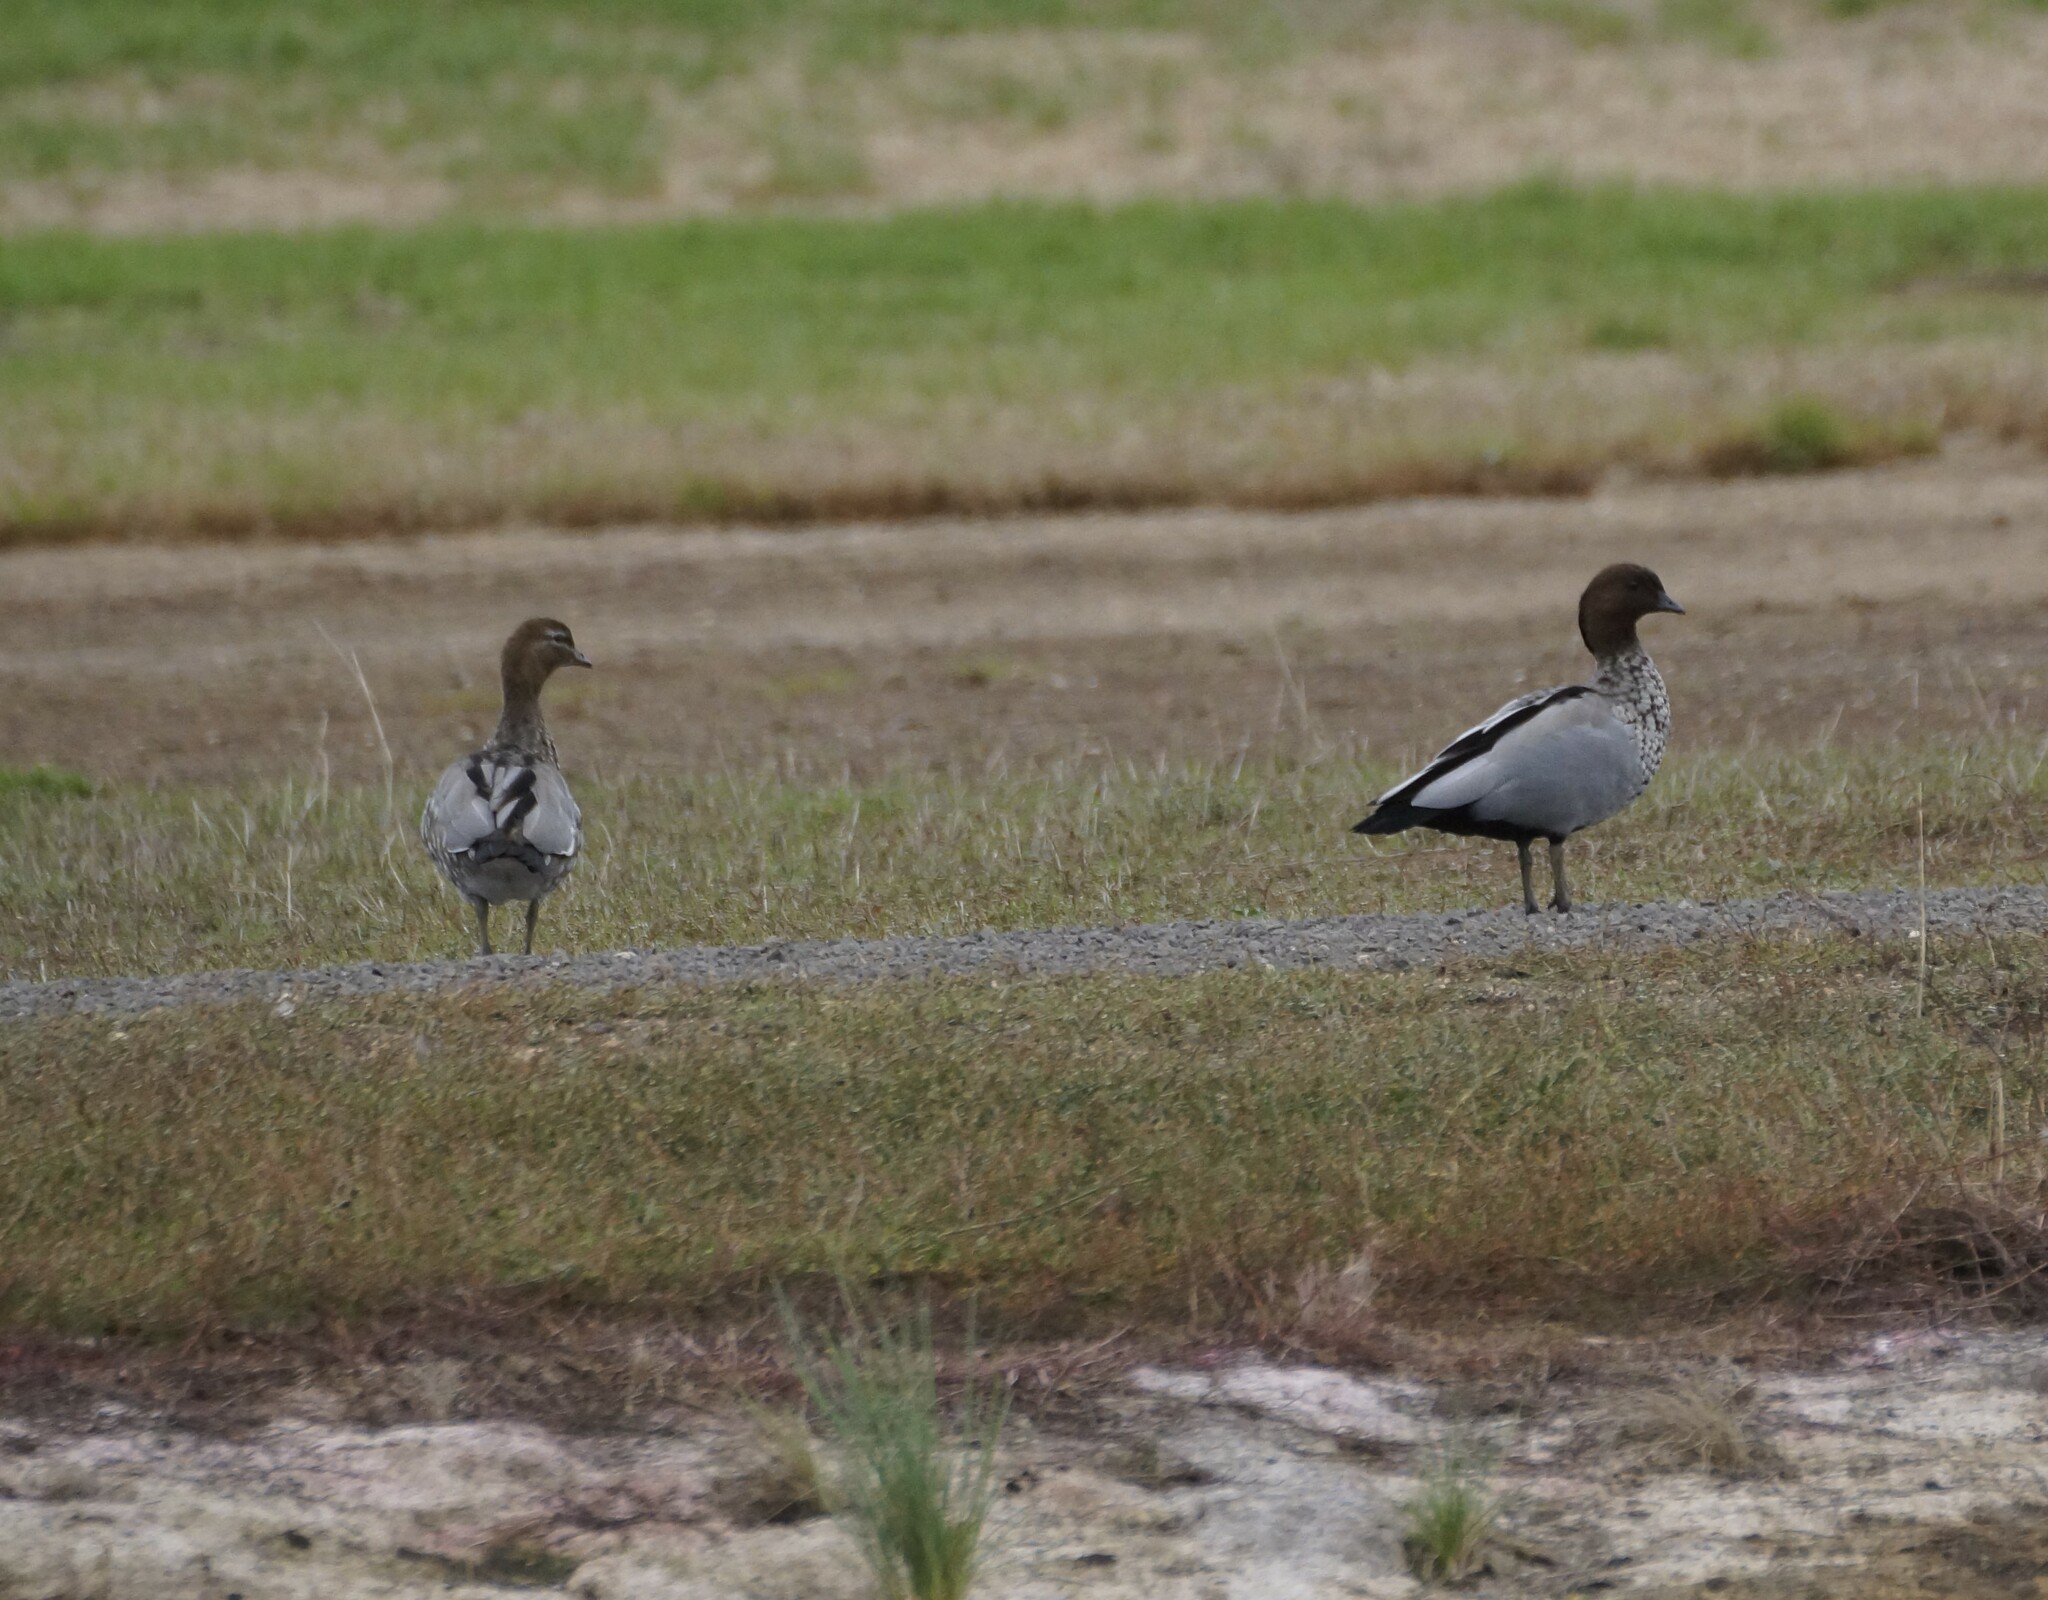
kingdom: Animalia
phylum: Chordata
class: Aves
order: Anseriformes
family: Anatidae
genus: Chenonetta
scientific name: Chenonetta jubata
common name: Maned duck
